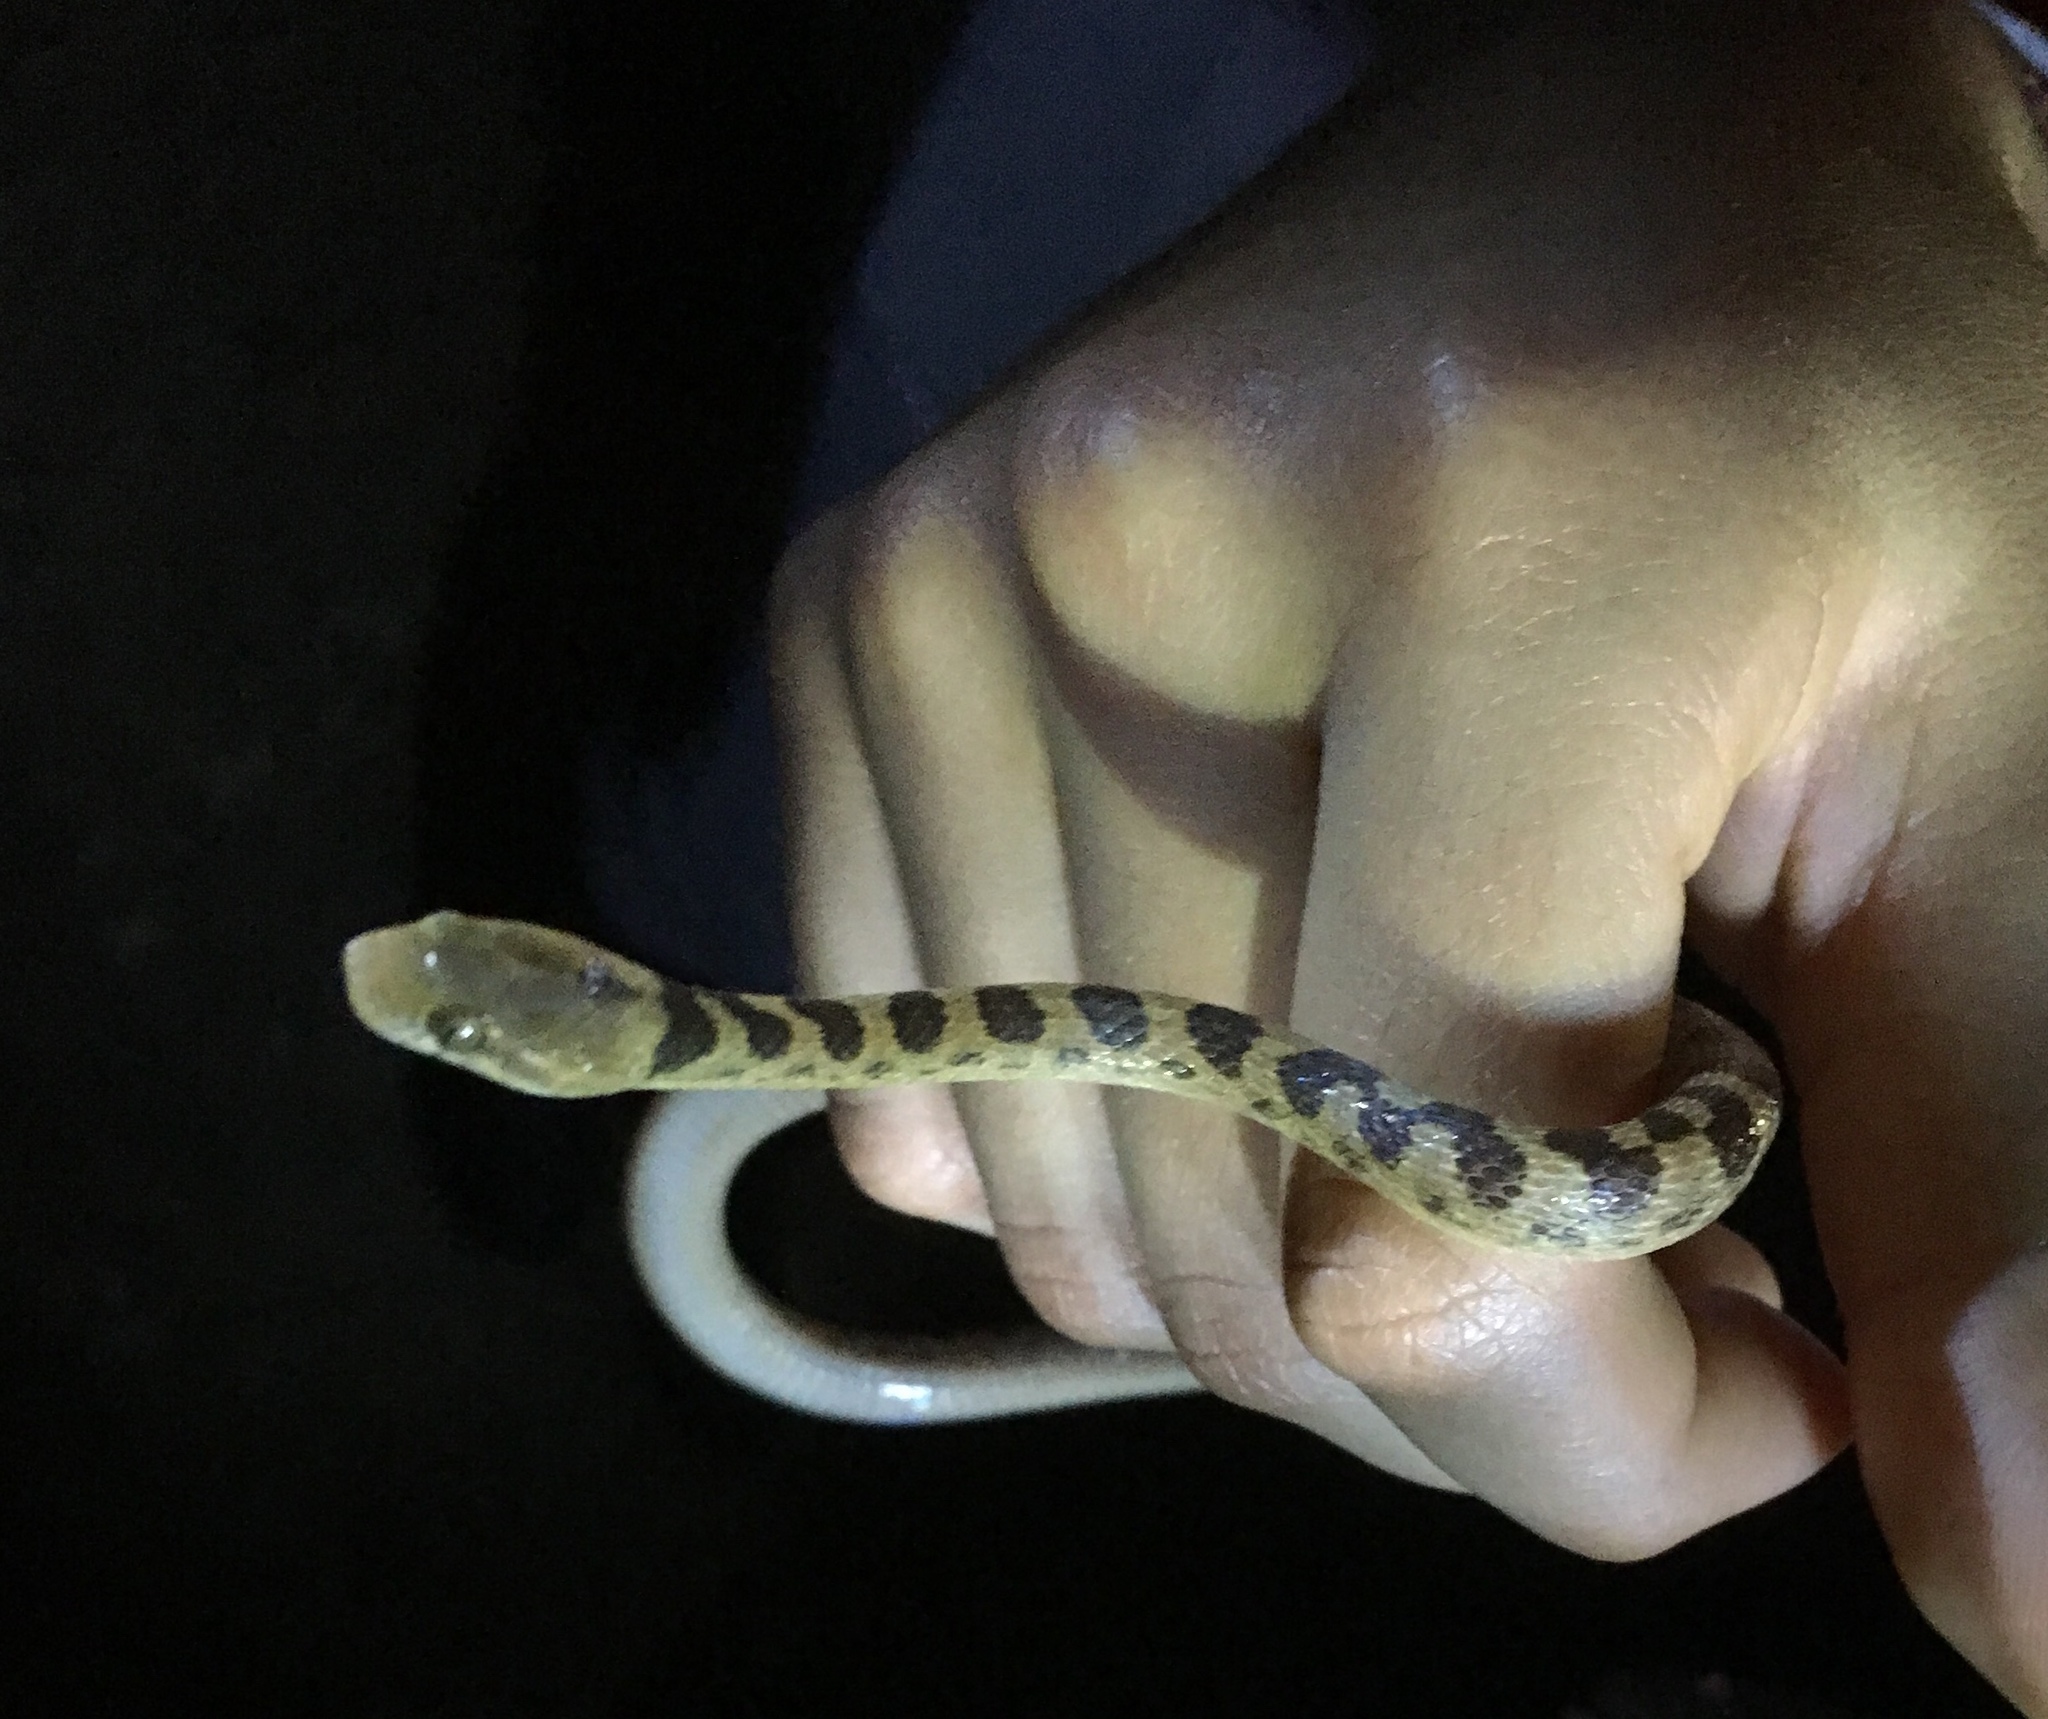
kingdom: Animalia
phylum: Chordata
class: Squamata
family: Colubridae
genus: Leptodeira
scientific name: Leptodeira ornata
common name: Northern cat-eyed snake
